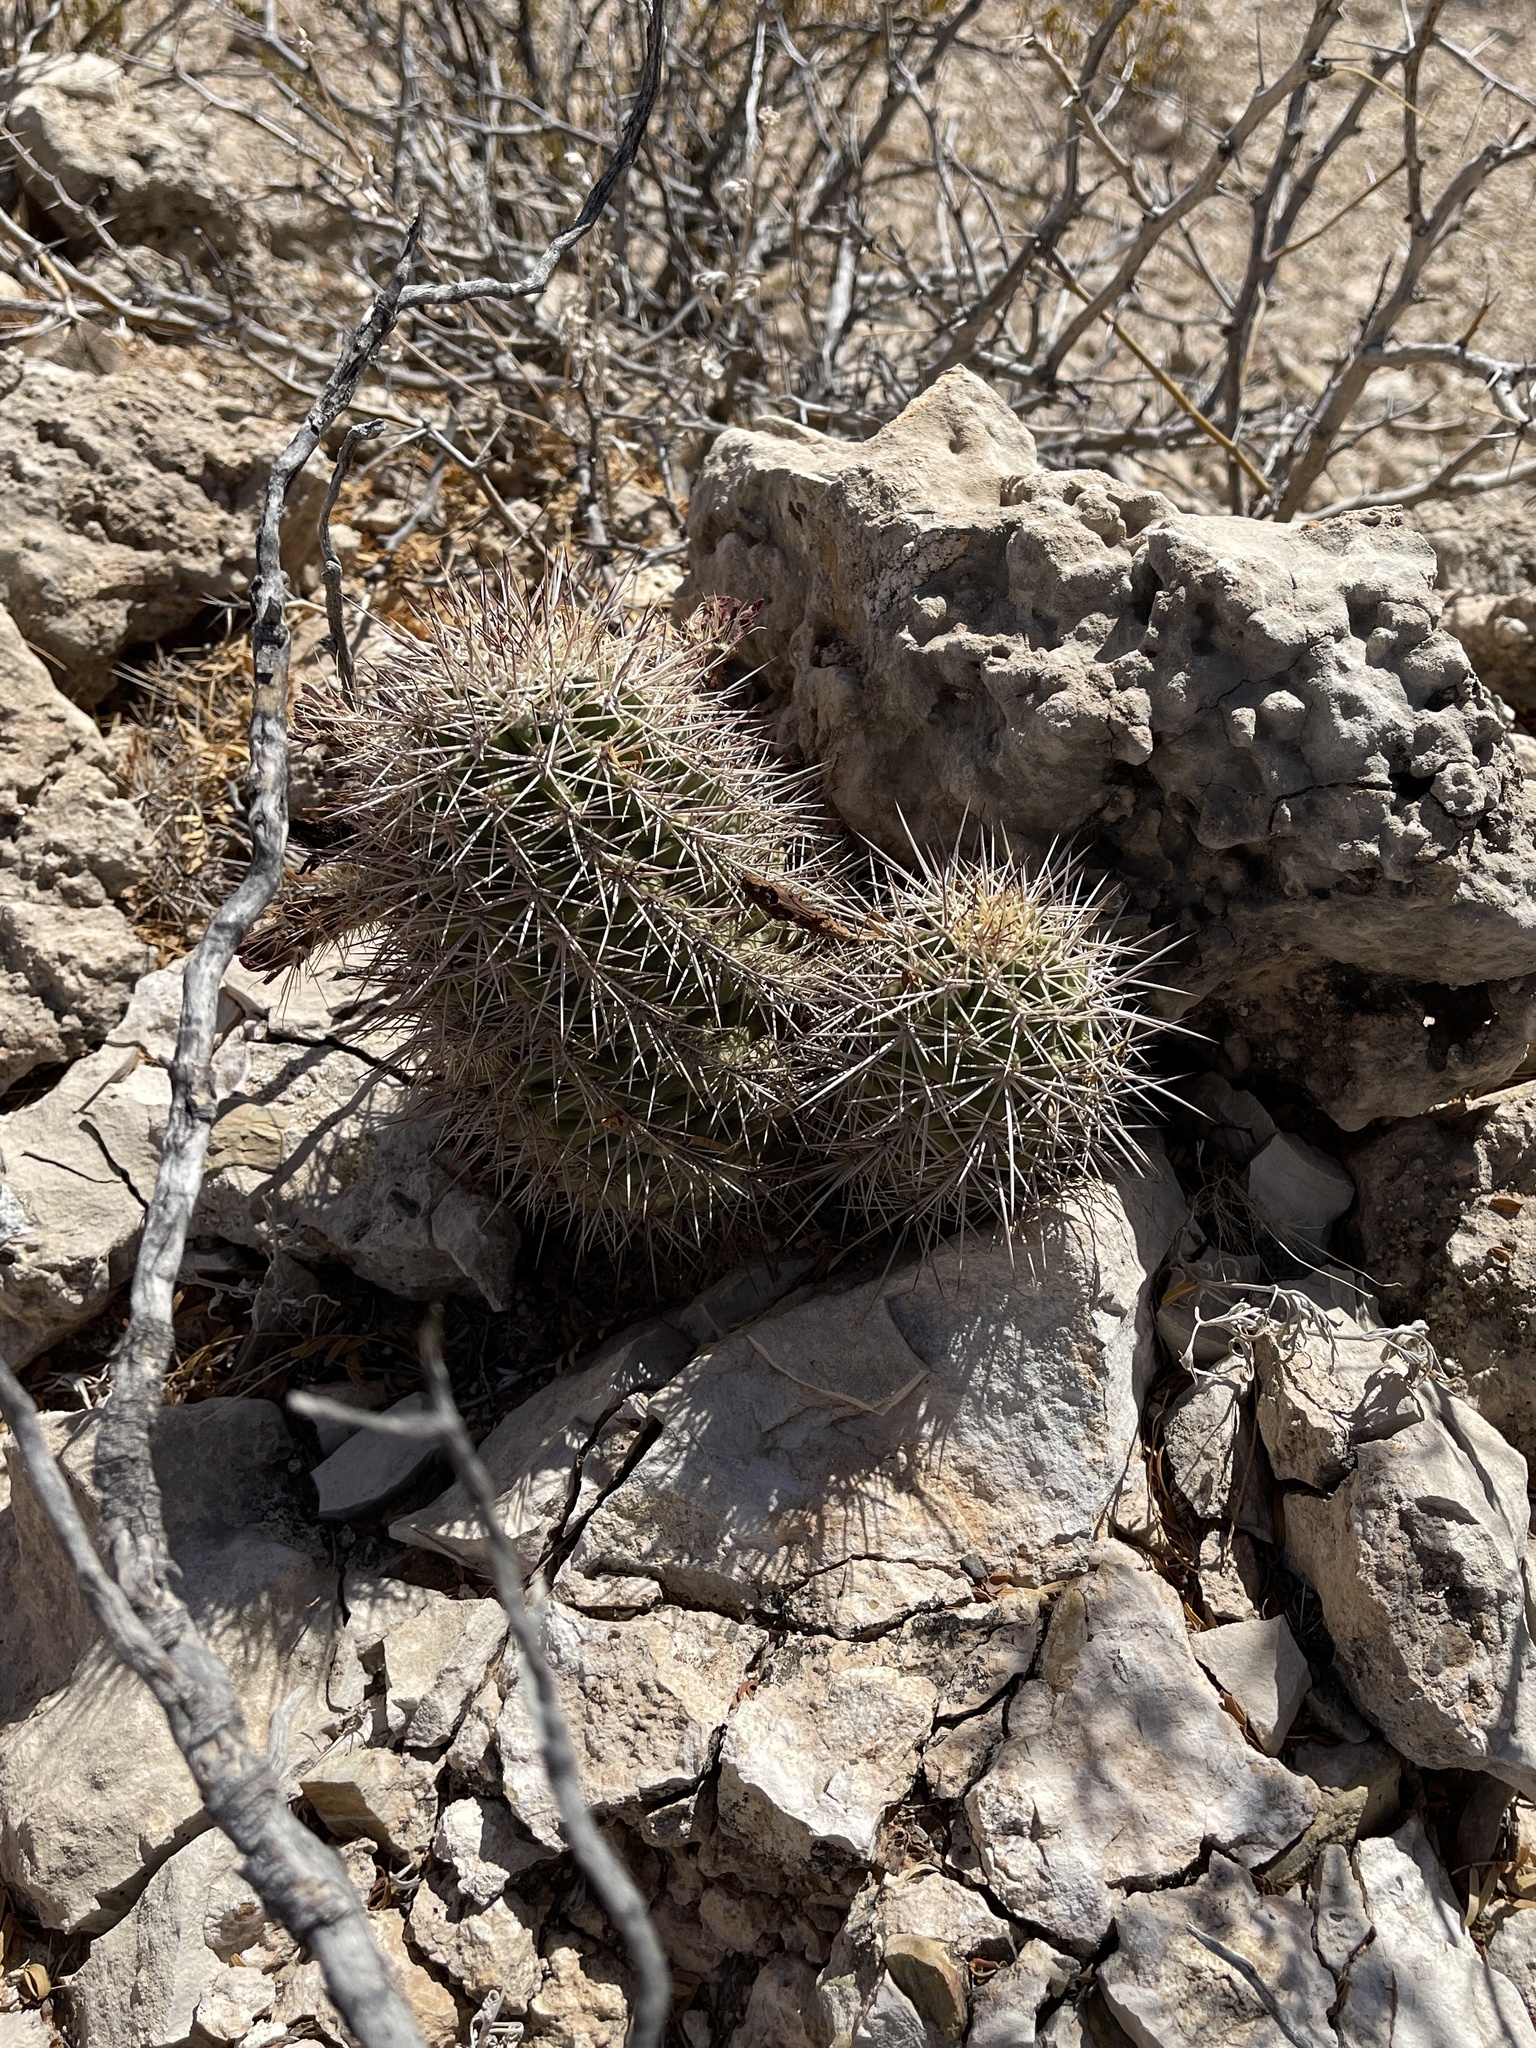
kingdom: Plantae
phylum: Tracheophyta
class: Magnoliopsida
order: Caryophyllales
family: Cactaceae
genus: Echinocereus
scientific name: Echinocereus coccineus
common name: Scarlet hedgehog cactus
